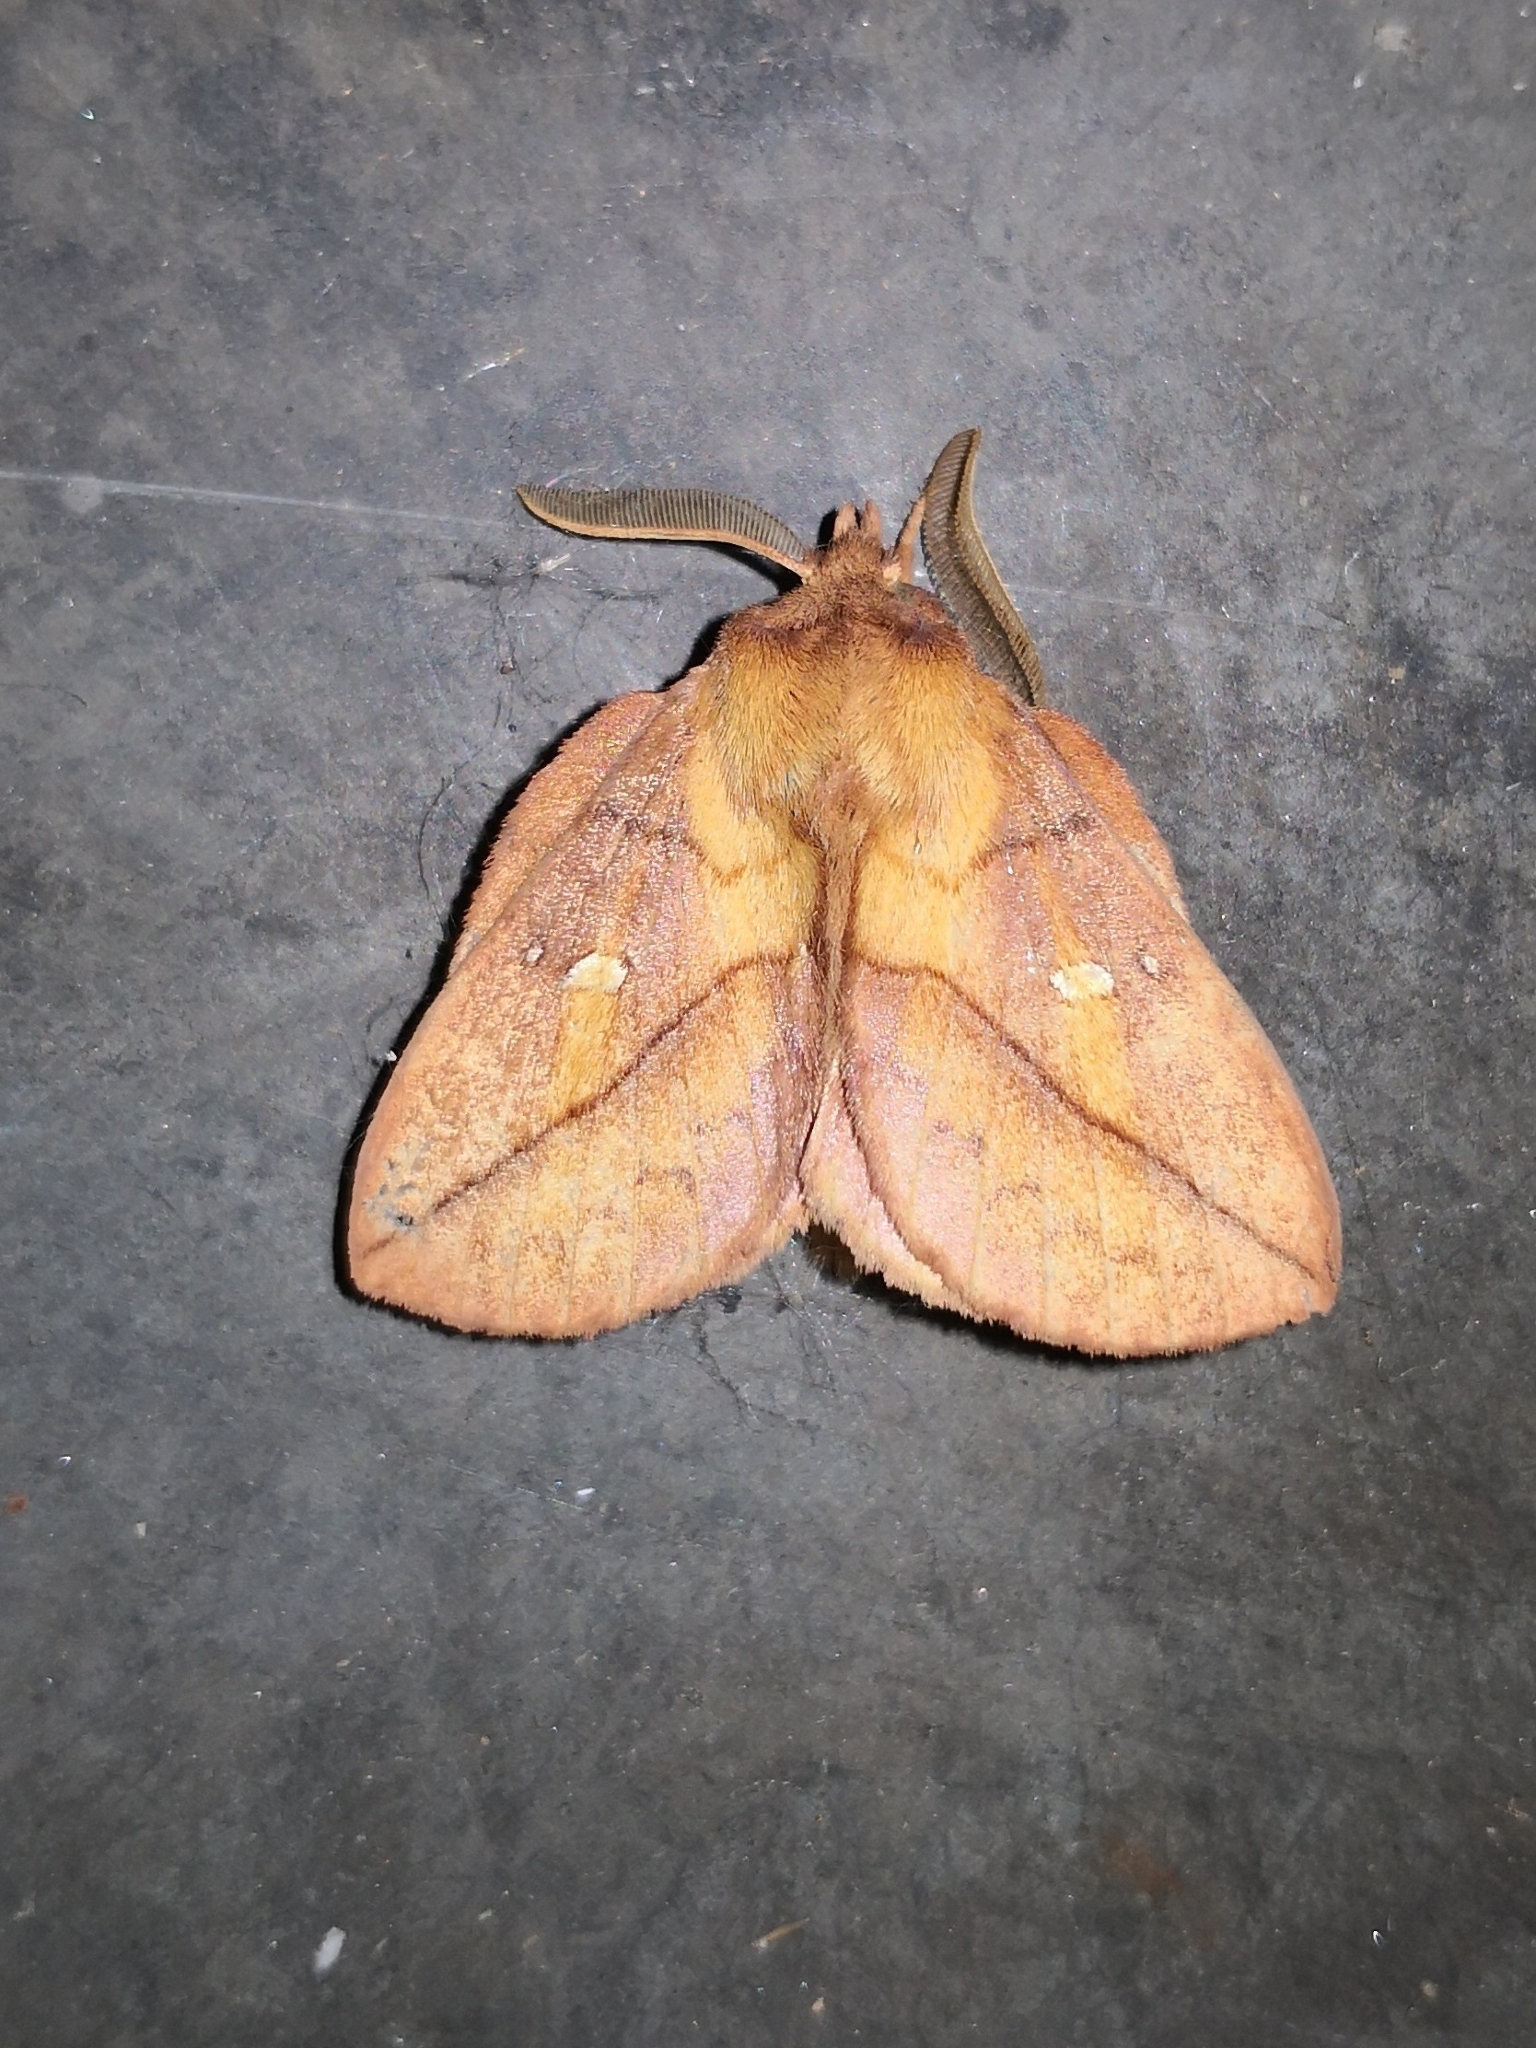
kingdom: Animalia
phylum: Arthropoda
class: Insecta
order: Lepidoptera
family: Lasiocampidae
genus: Euthrix
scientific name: Euthrix potatoria
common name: Drinker
